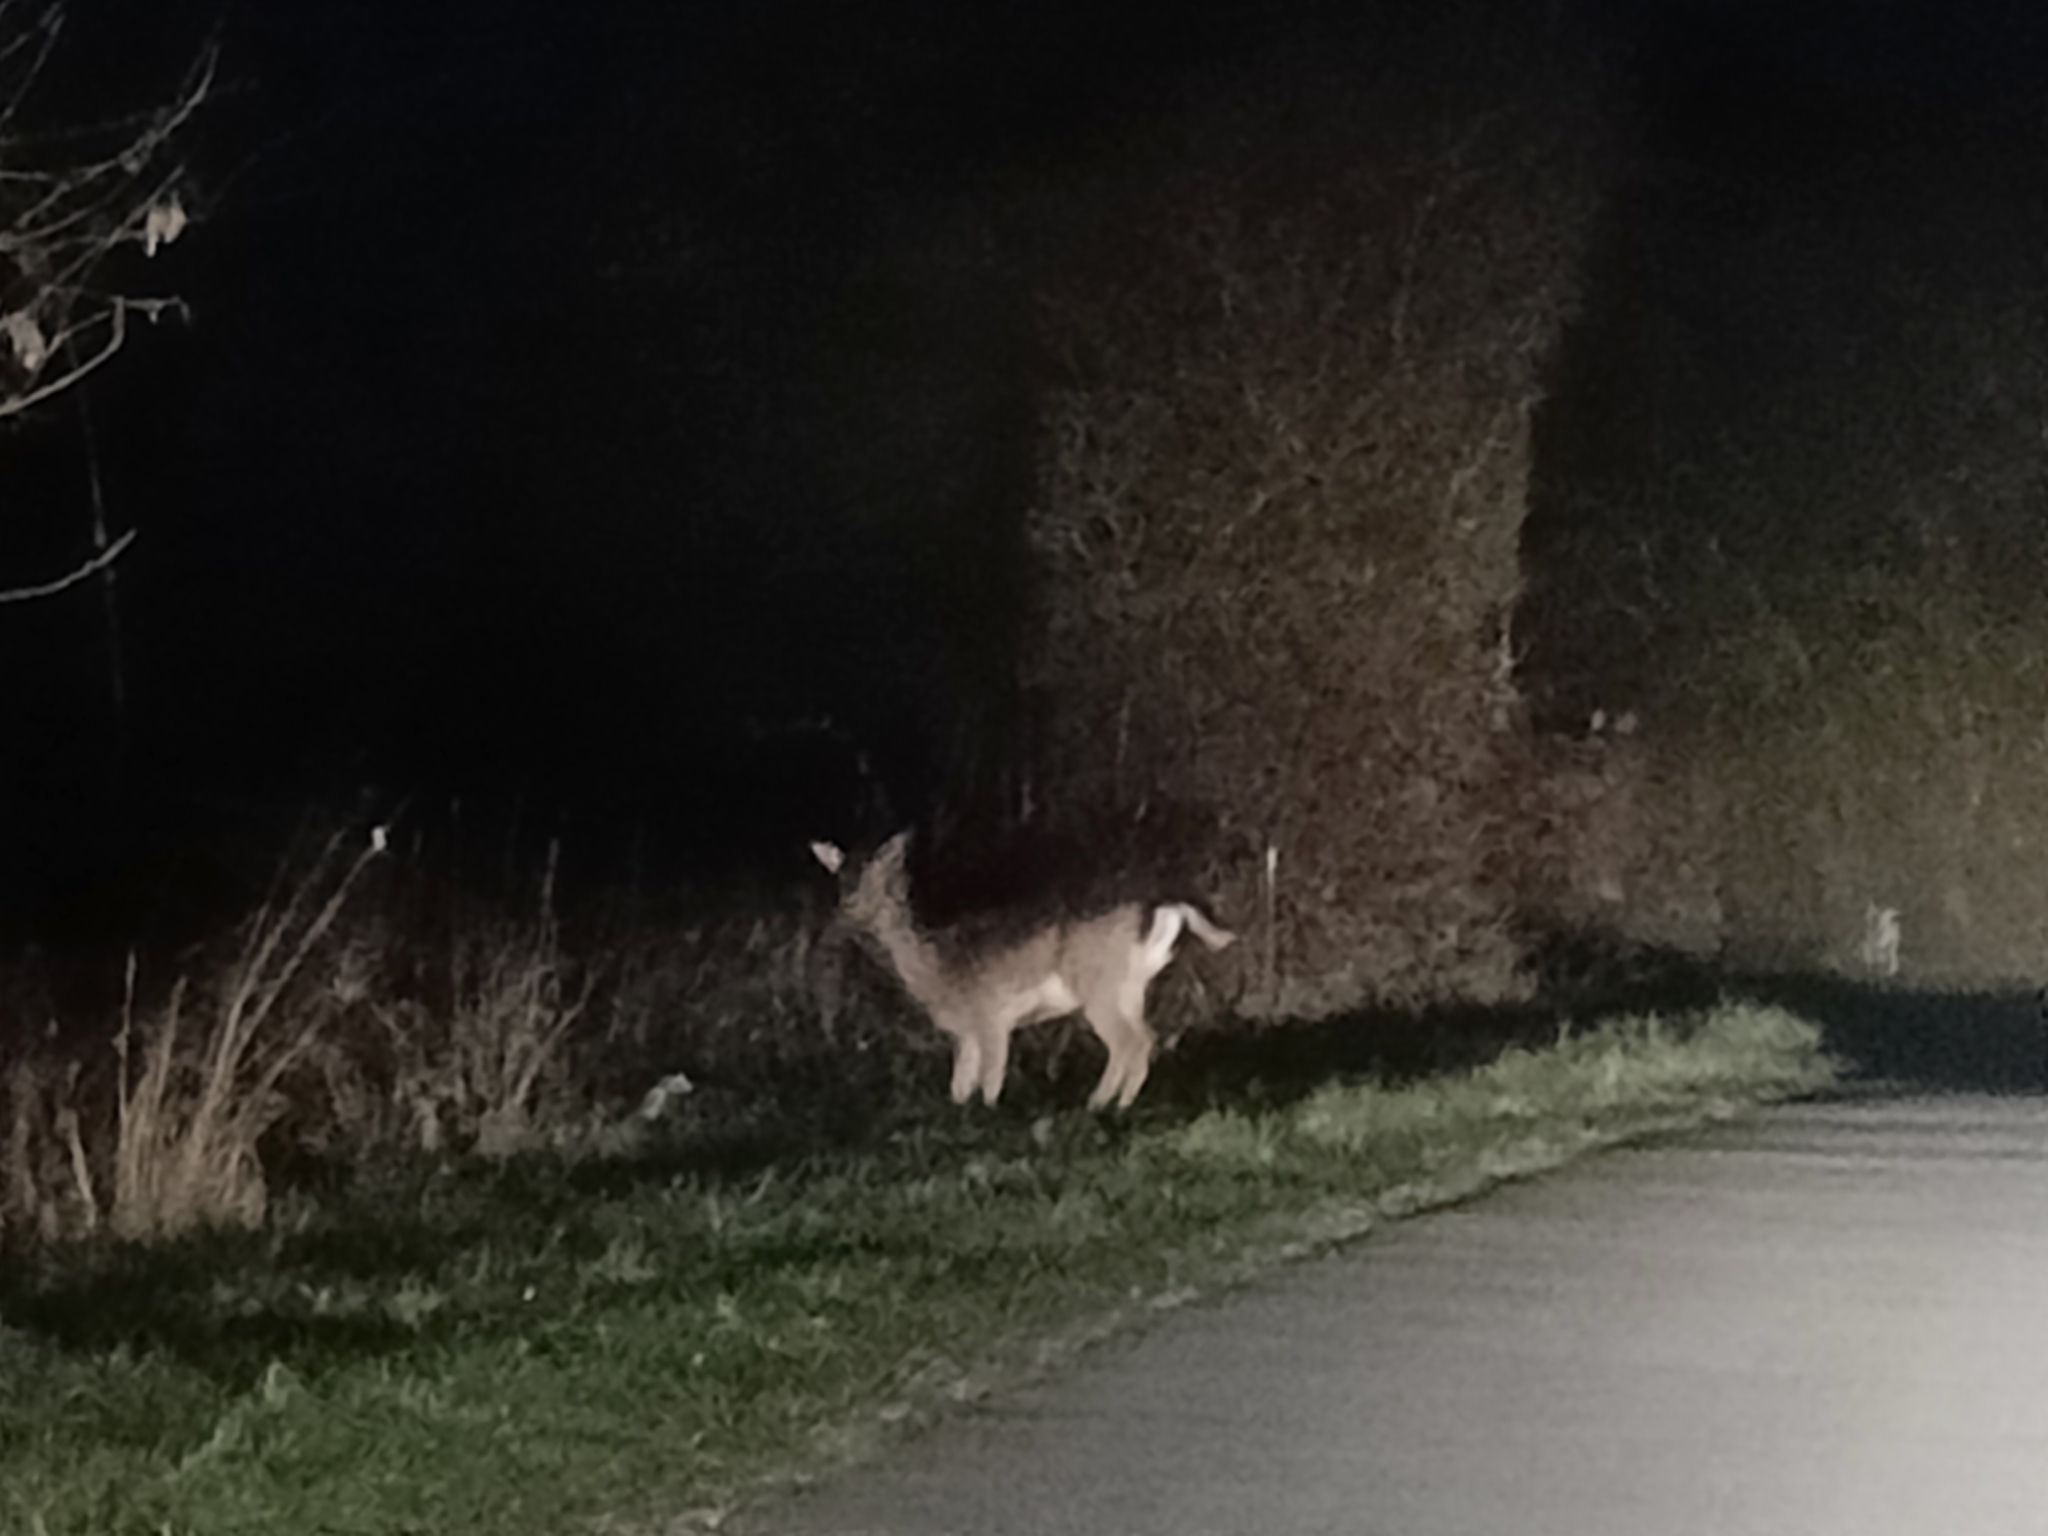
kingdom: Animalia
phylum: Chordata
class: Mammalia
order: Artiodactyla
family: Cervidae
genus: Dama
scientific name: Dama dama
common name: Fallow deer
